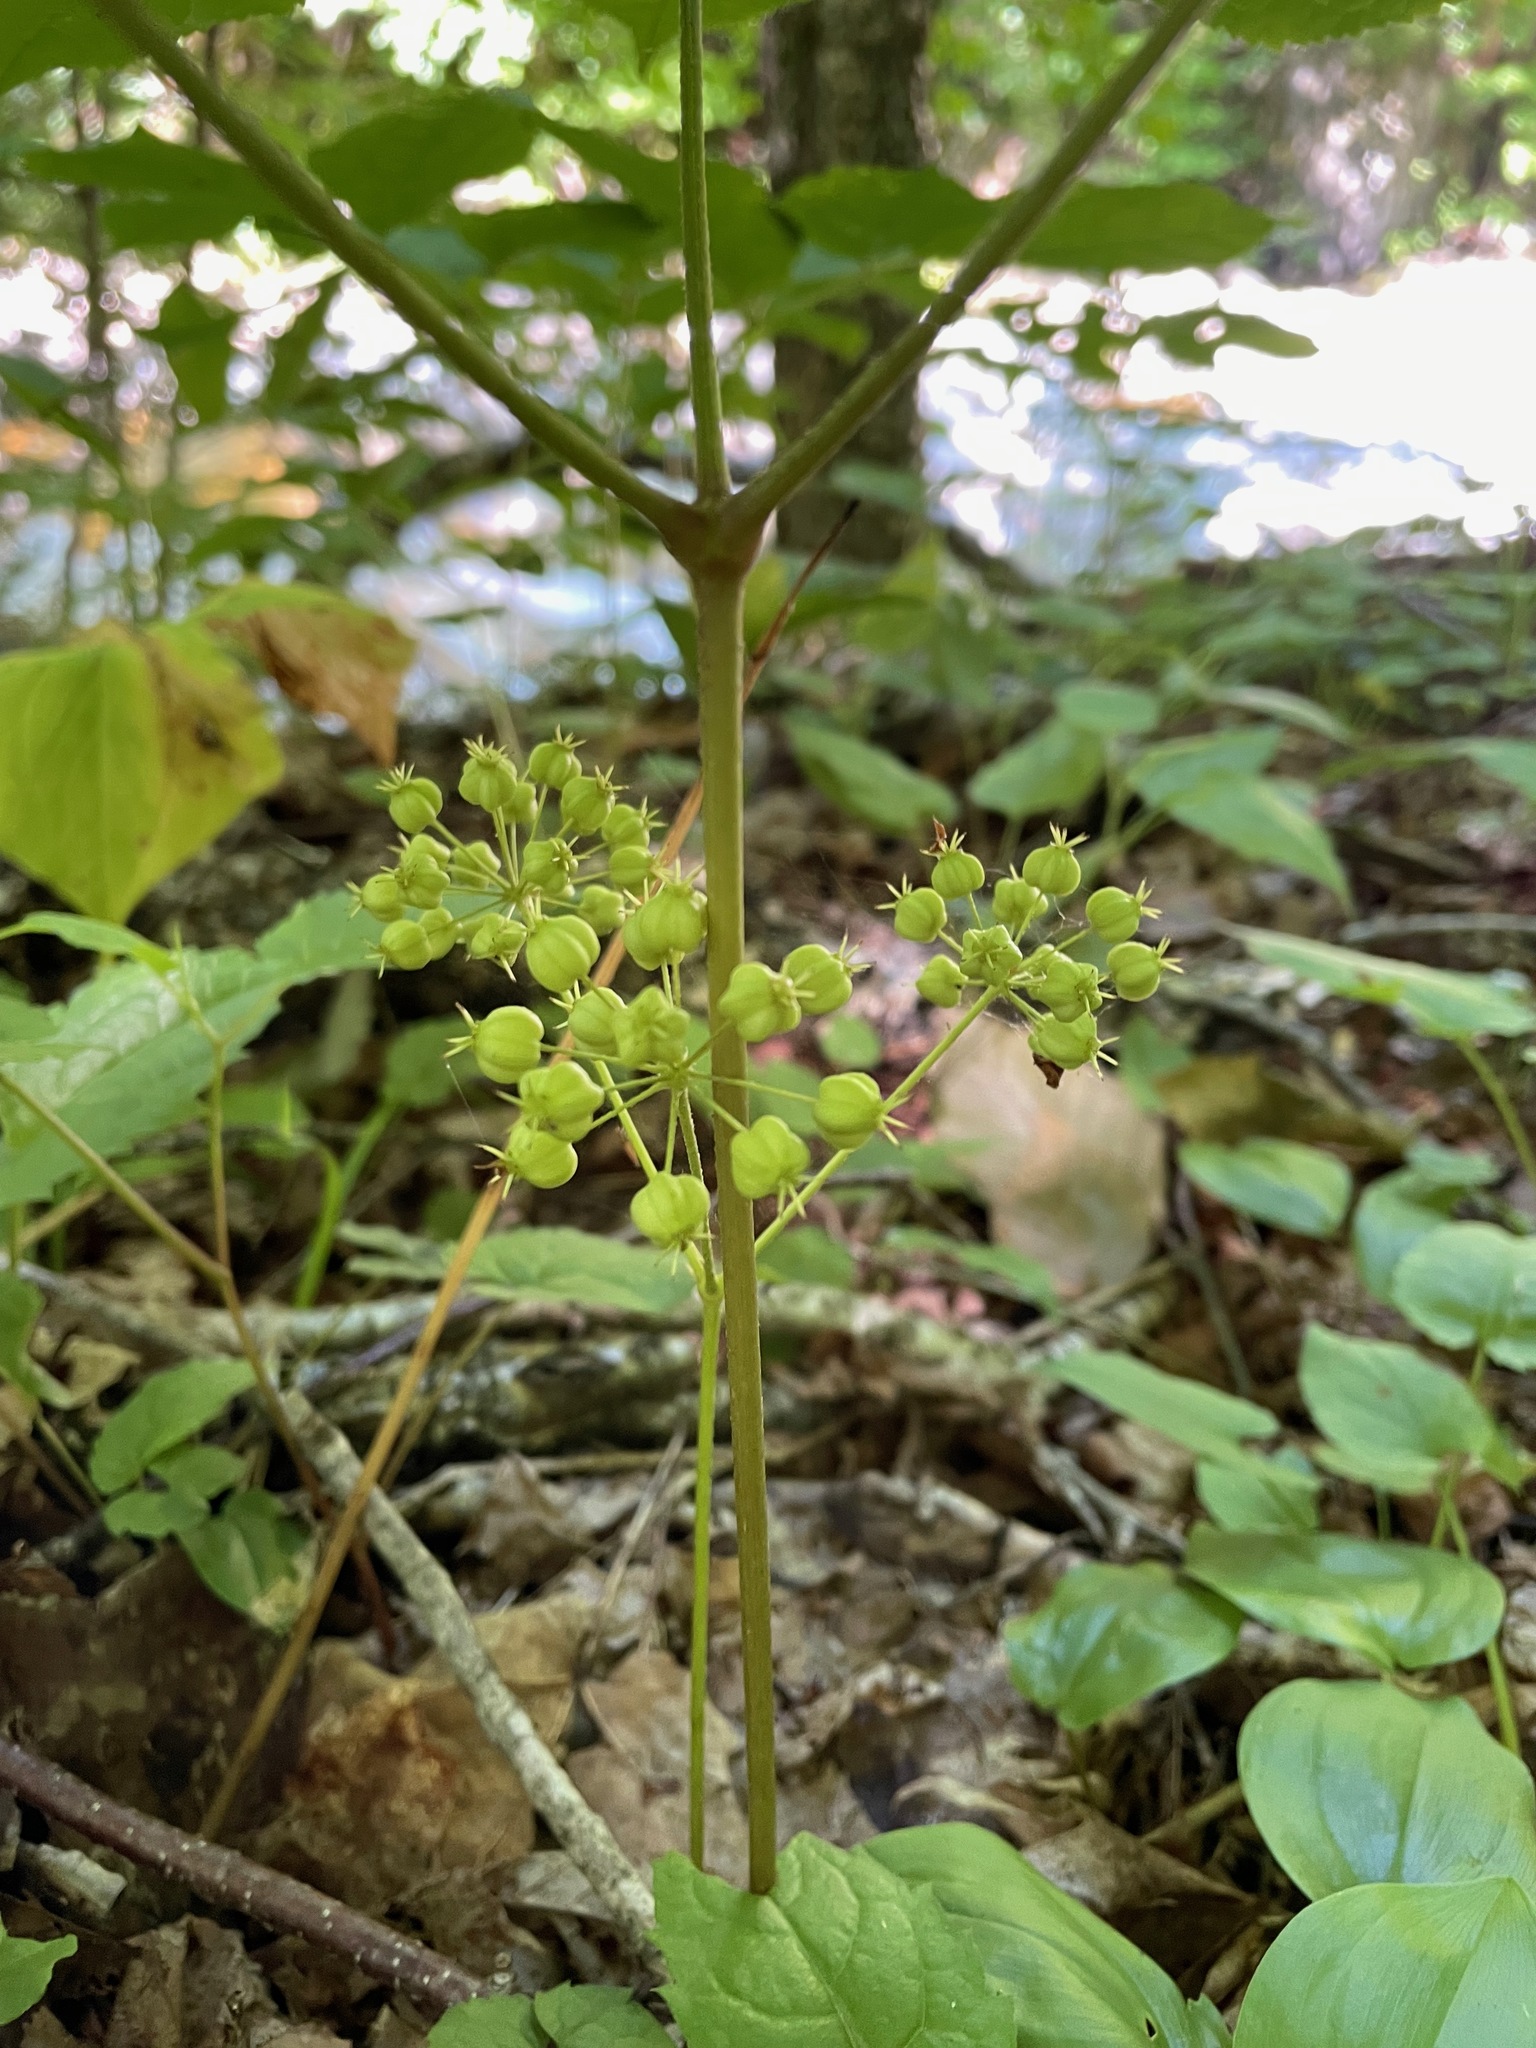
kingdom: Plantae
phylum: Tracheophyta
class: Magnoliopsida
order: Apiales
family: Araliaceae
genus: Aralia
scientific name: Aralia nudicaulis
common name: Wild sarsaparilla
